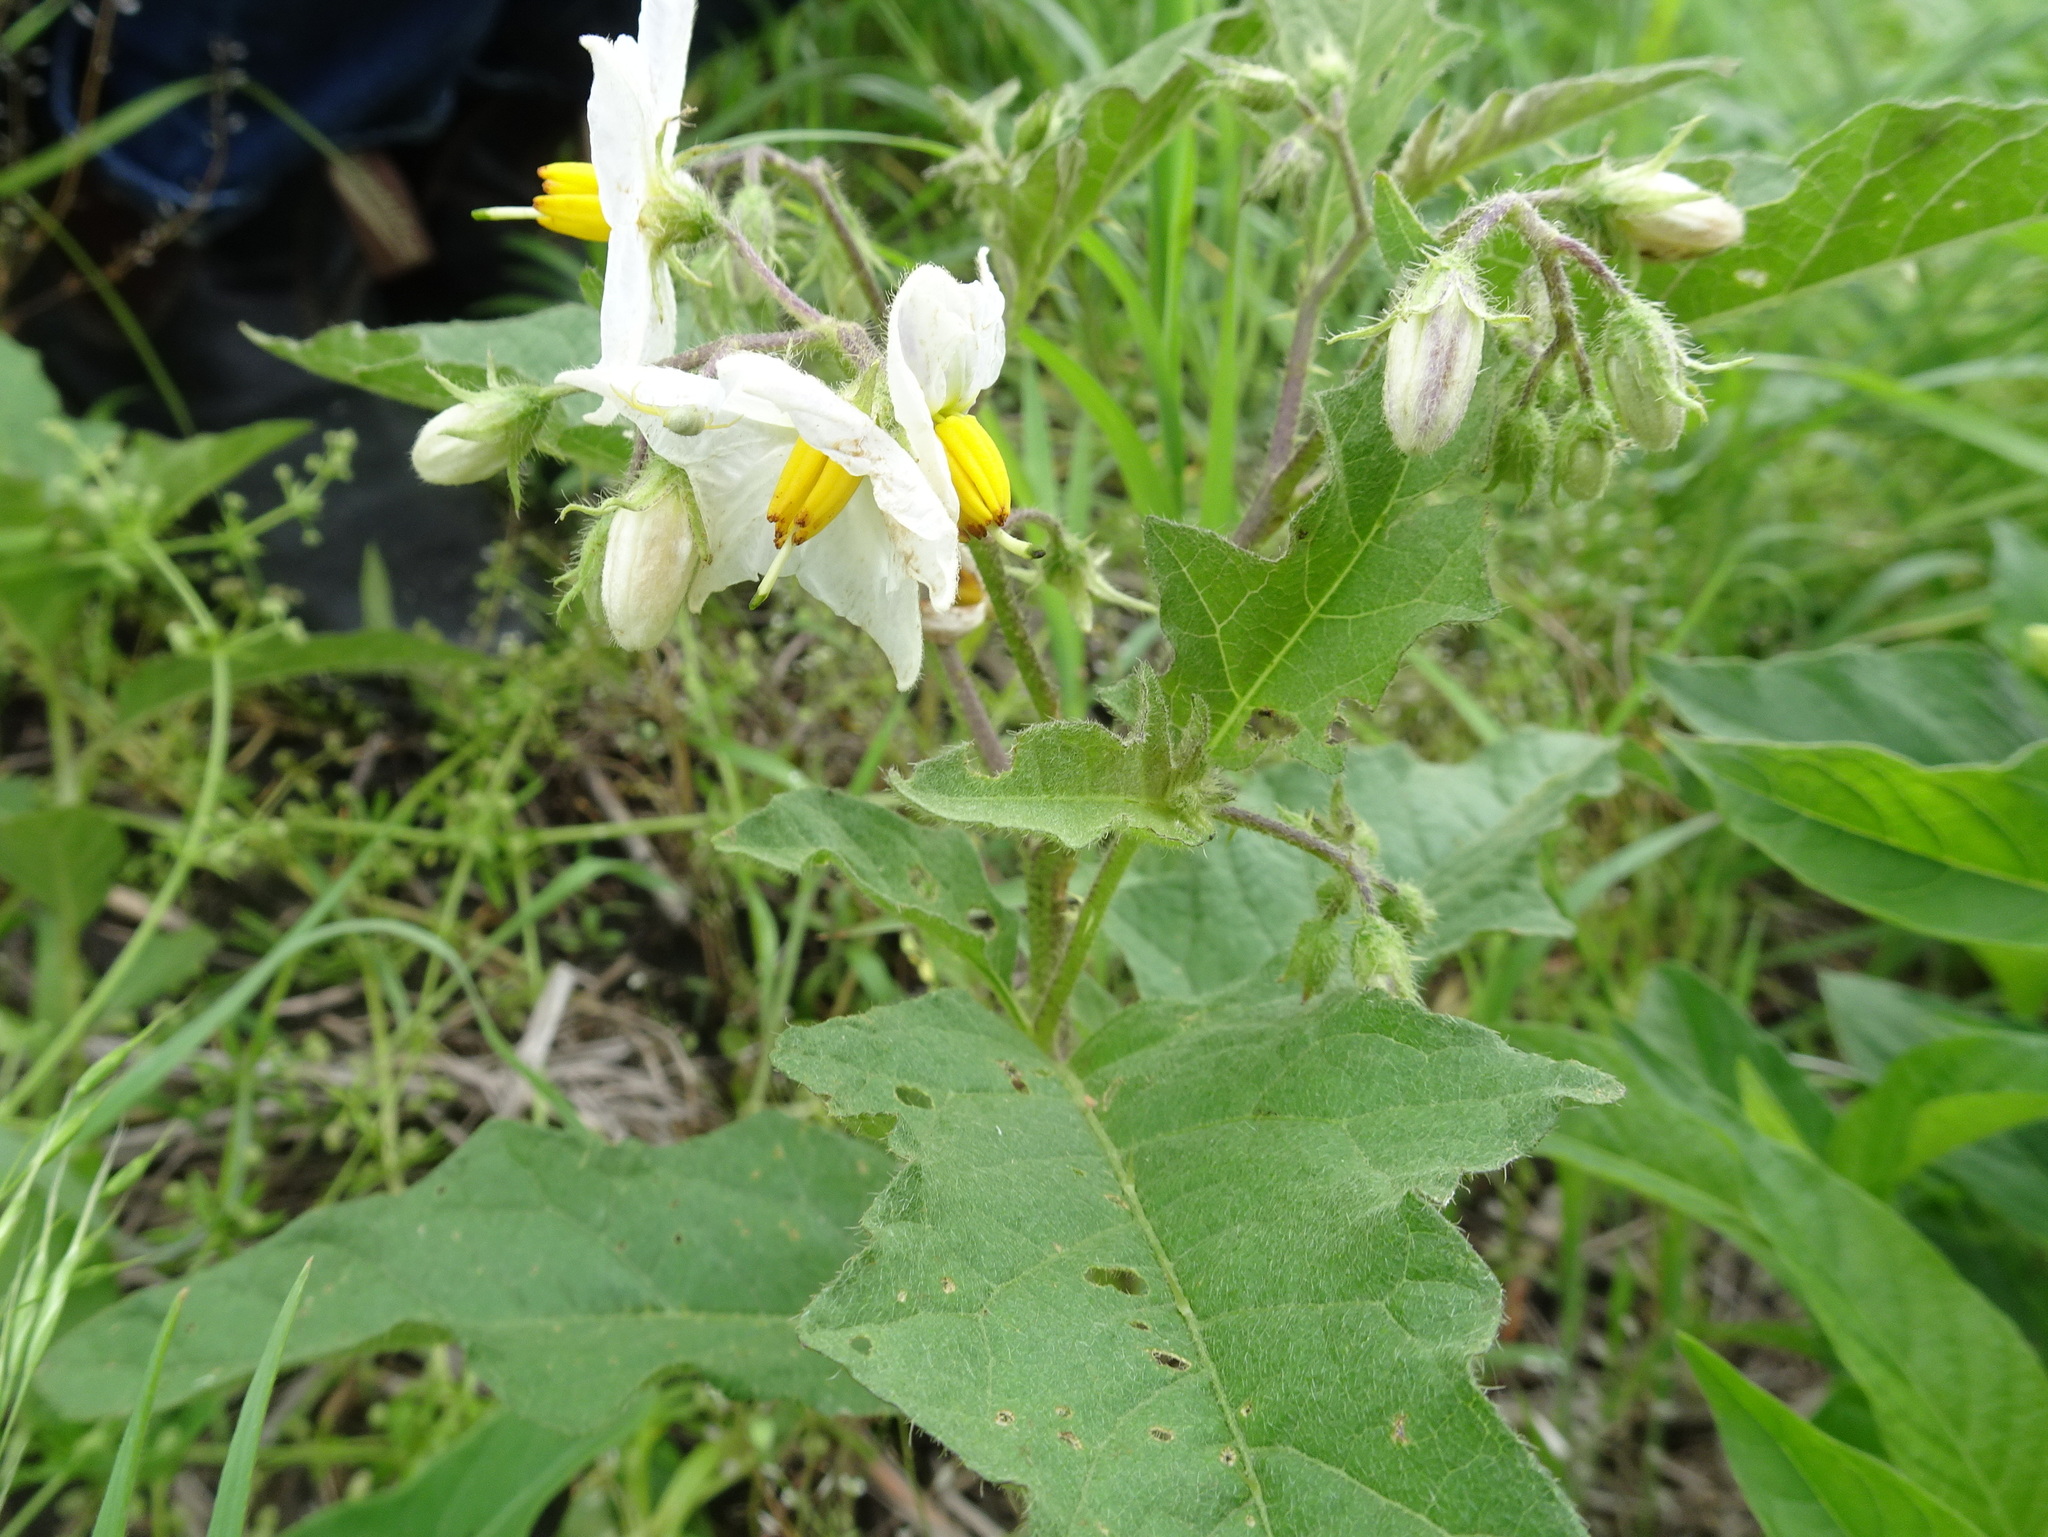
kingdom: Plantae
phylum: Tracheophyta
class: Magnoliopsida
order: Solanales
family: Solanaceae
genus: Solanum
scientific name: Solanum carolinense
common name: Horse-nettle
